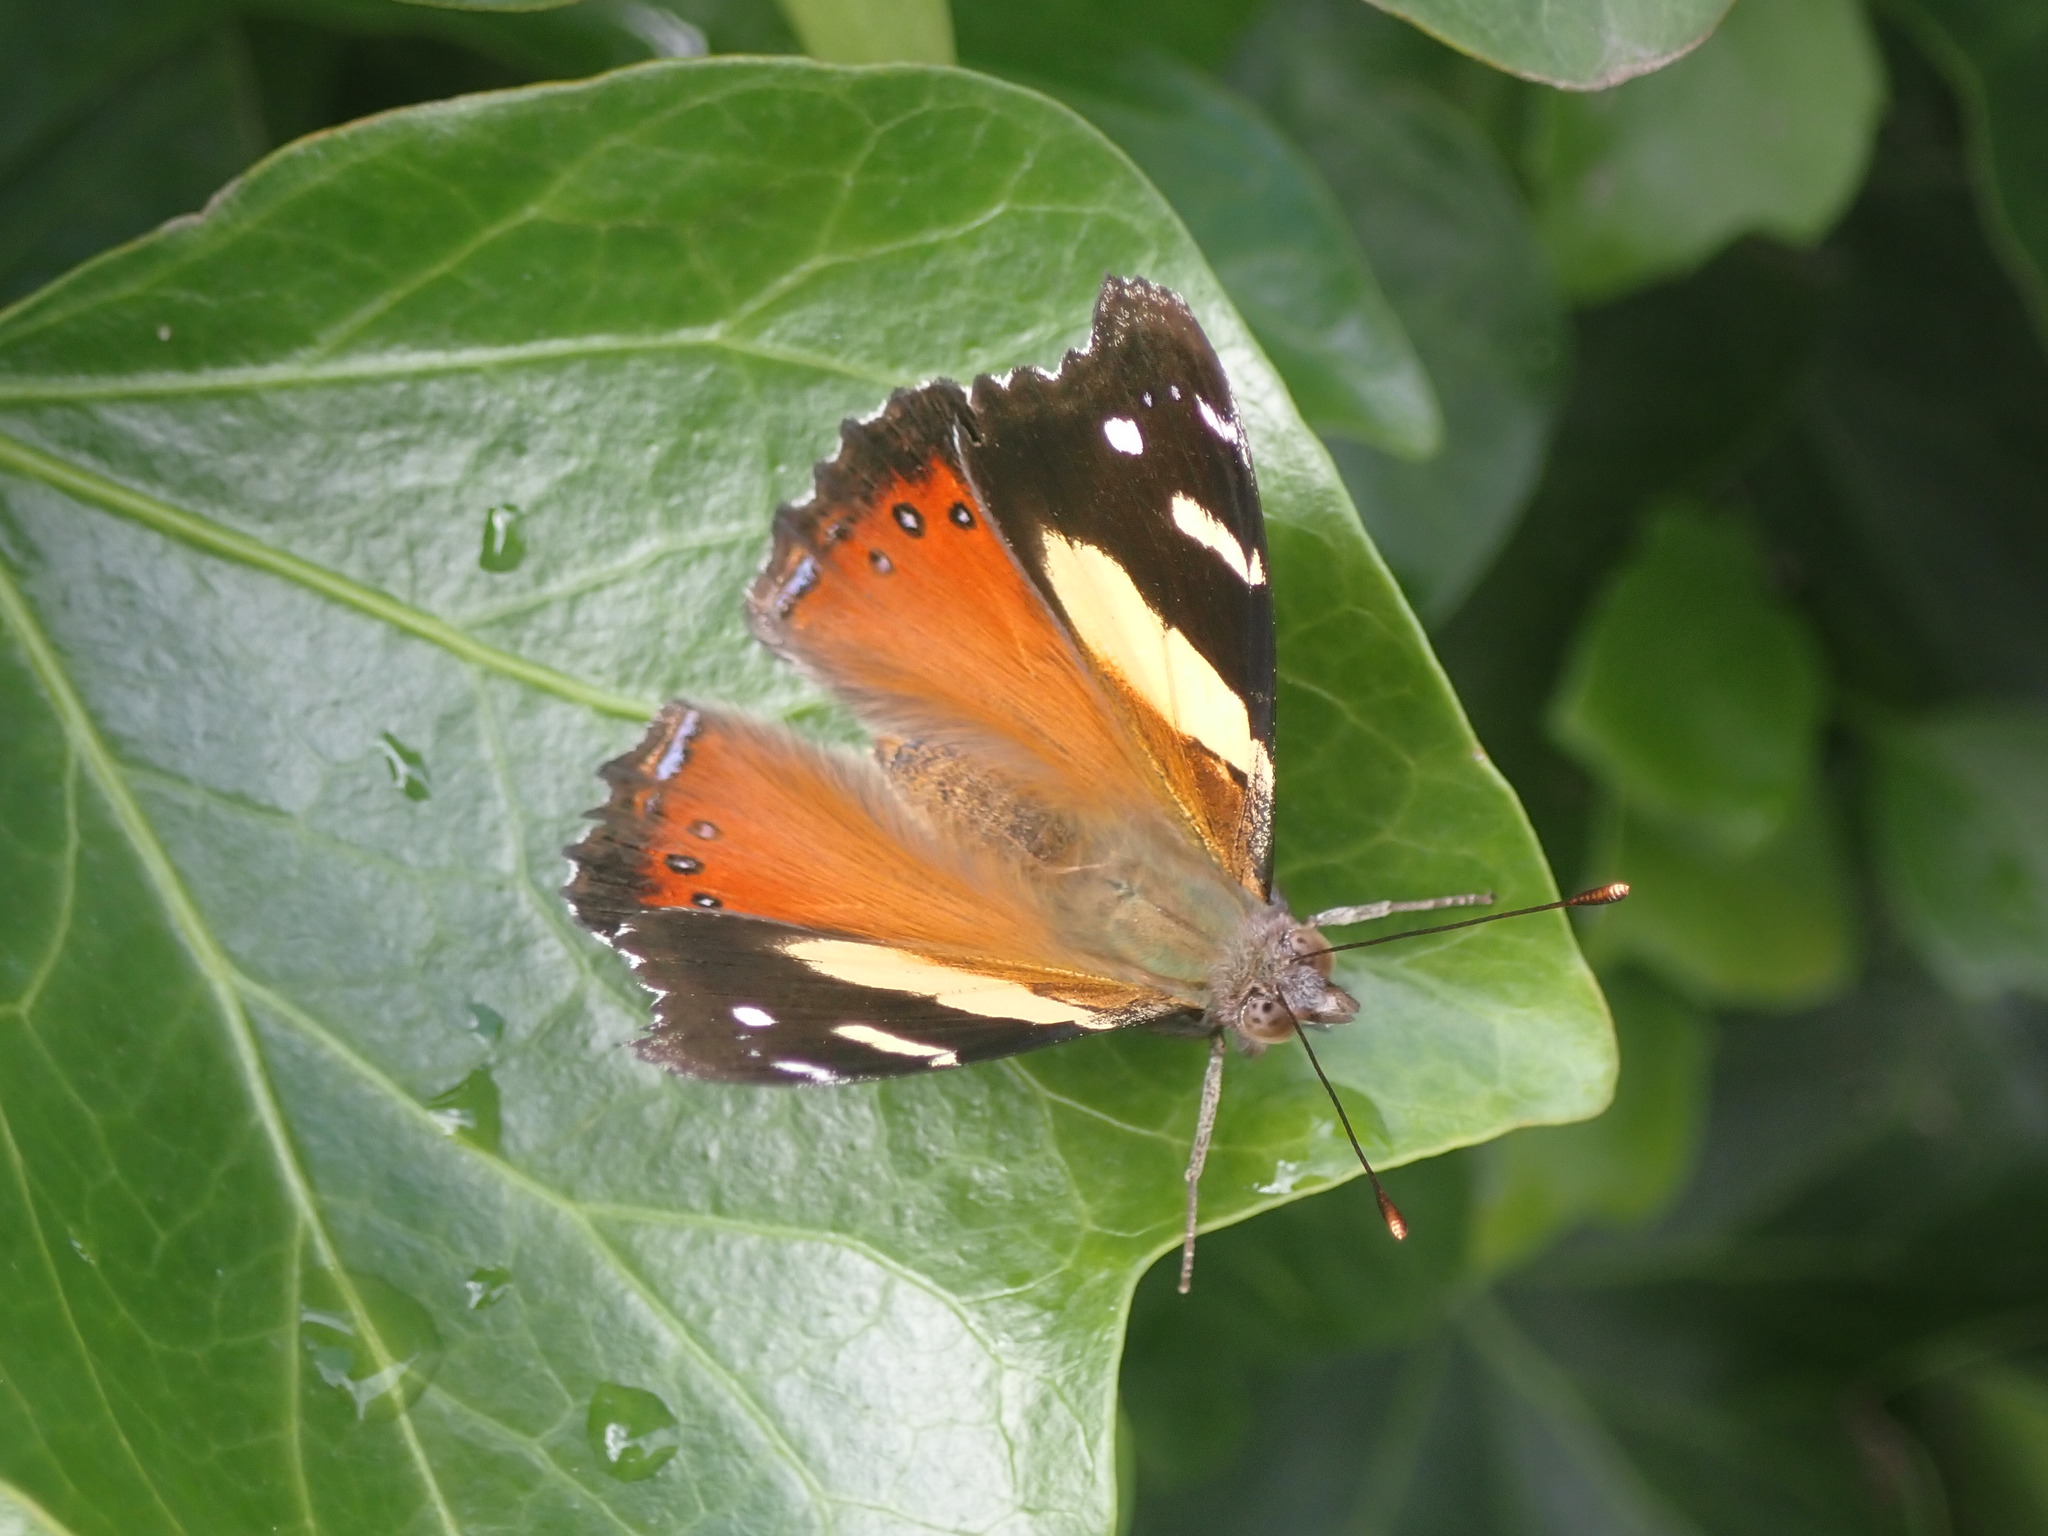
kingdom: Animalia
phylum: Arthropoda
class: Insecta
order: Lepidoptera
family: Nymphalidae
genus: Vanessa
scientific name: Vanessa itea
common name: Yellow admiral
